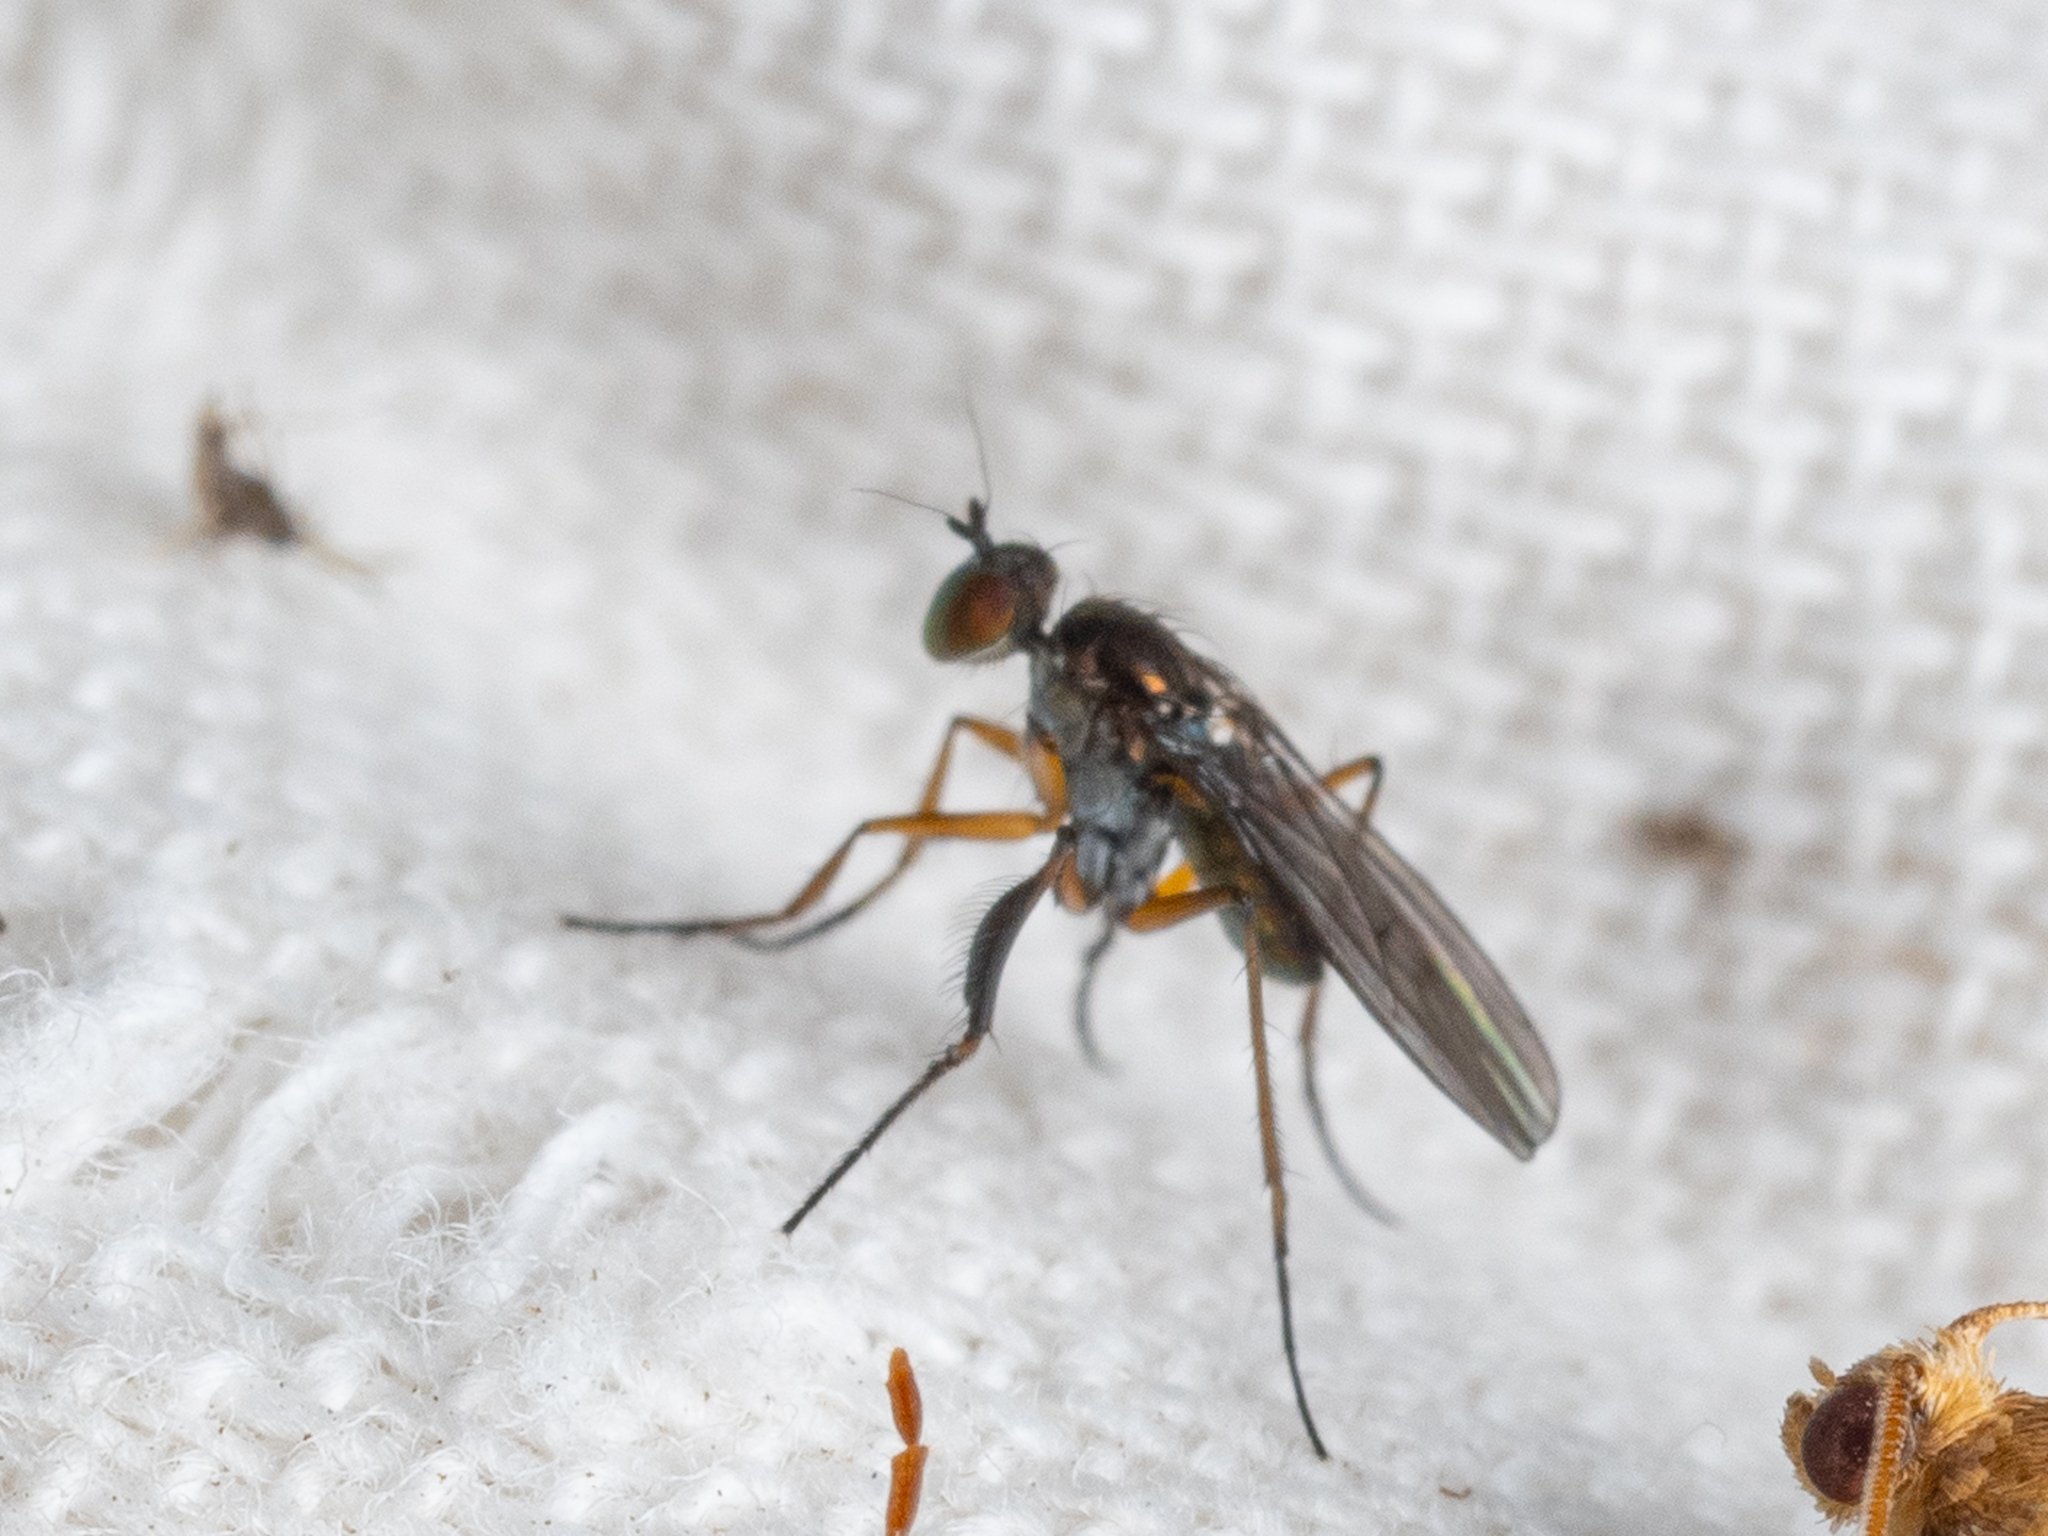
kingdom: Animalia
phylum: Arthropoda
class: Insecta
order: Diptera
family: Dolichopodidae
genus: Campsicnemus
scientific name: Campsicnemus scambus
